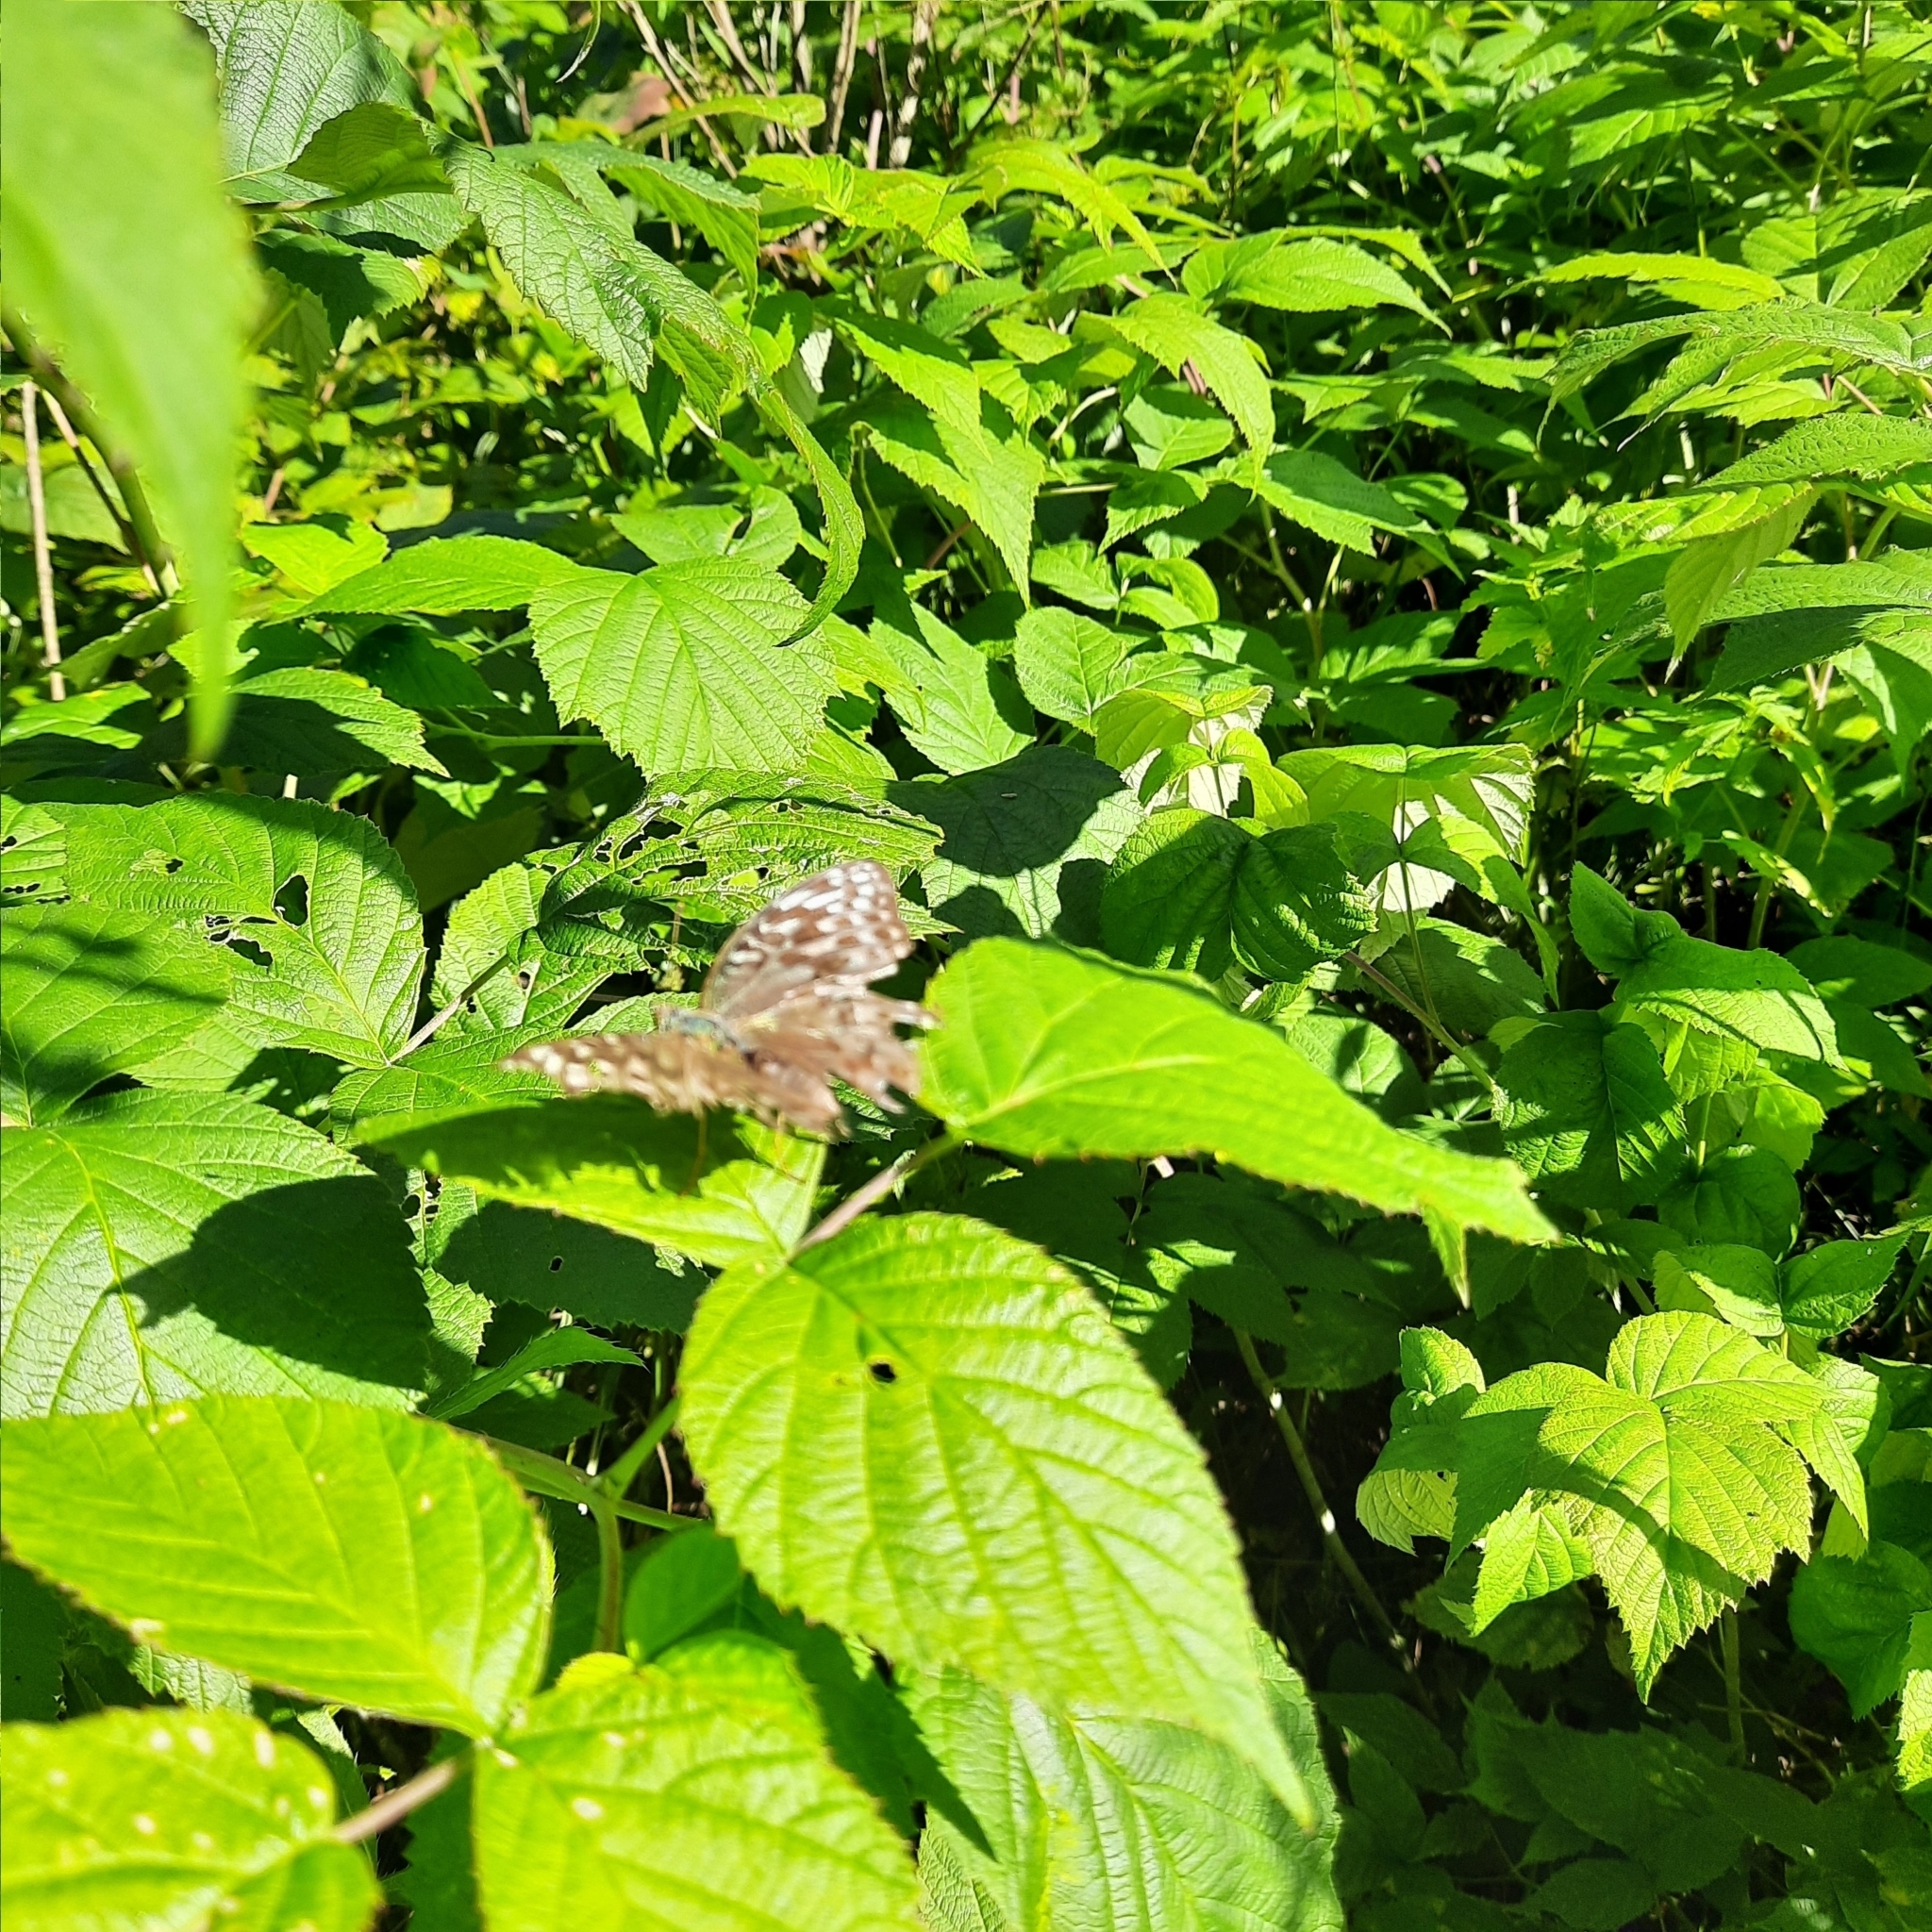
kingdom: Animalia
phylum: Arthropoda
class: Insecta
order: Lepidoptera
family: Nymphalidae
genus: Argynnis
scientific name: Argynnis paphia
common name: Silver-washed fritillary
